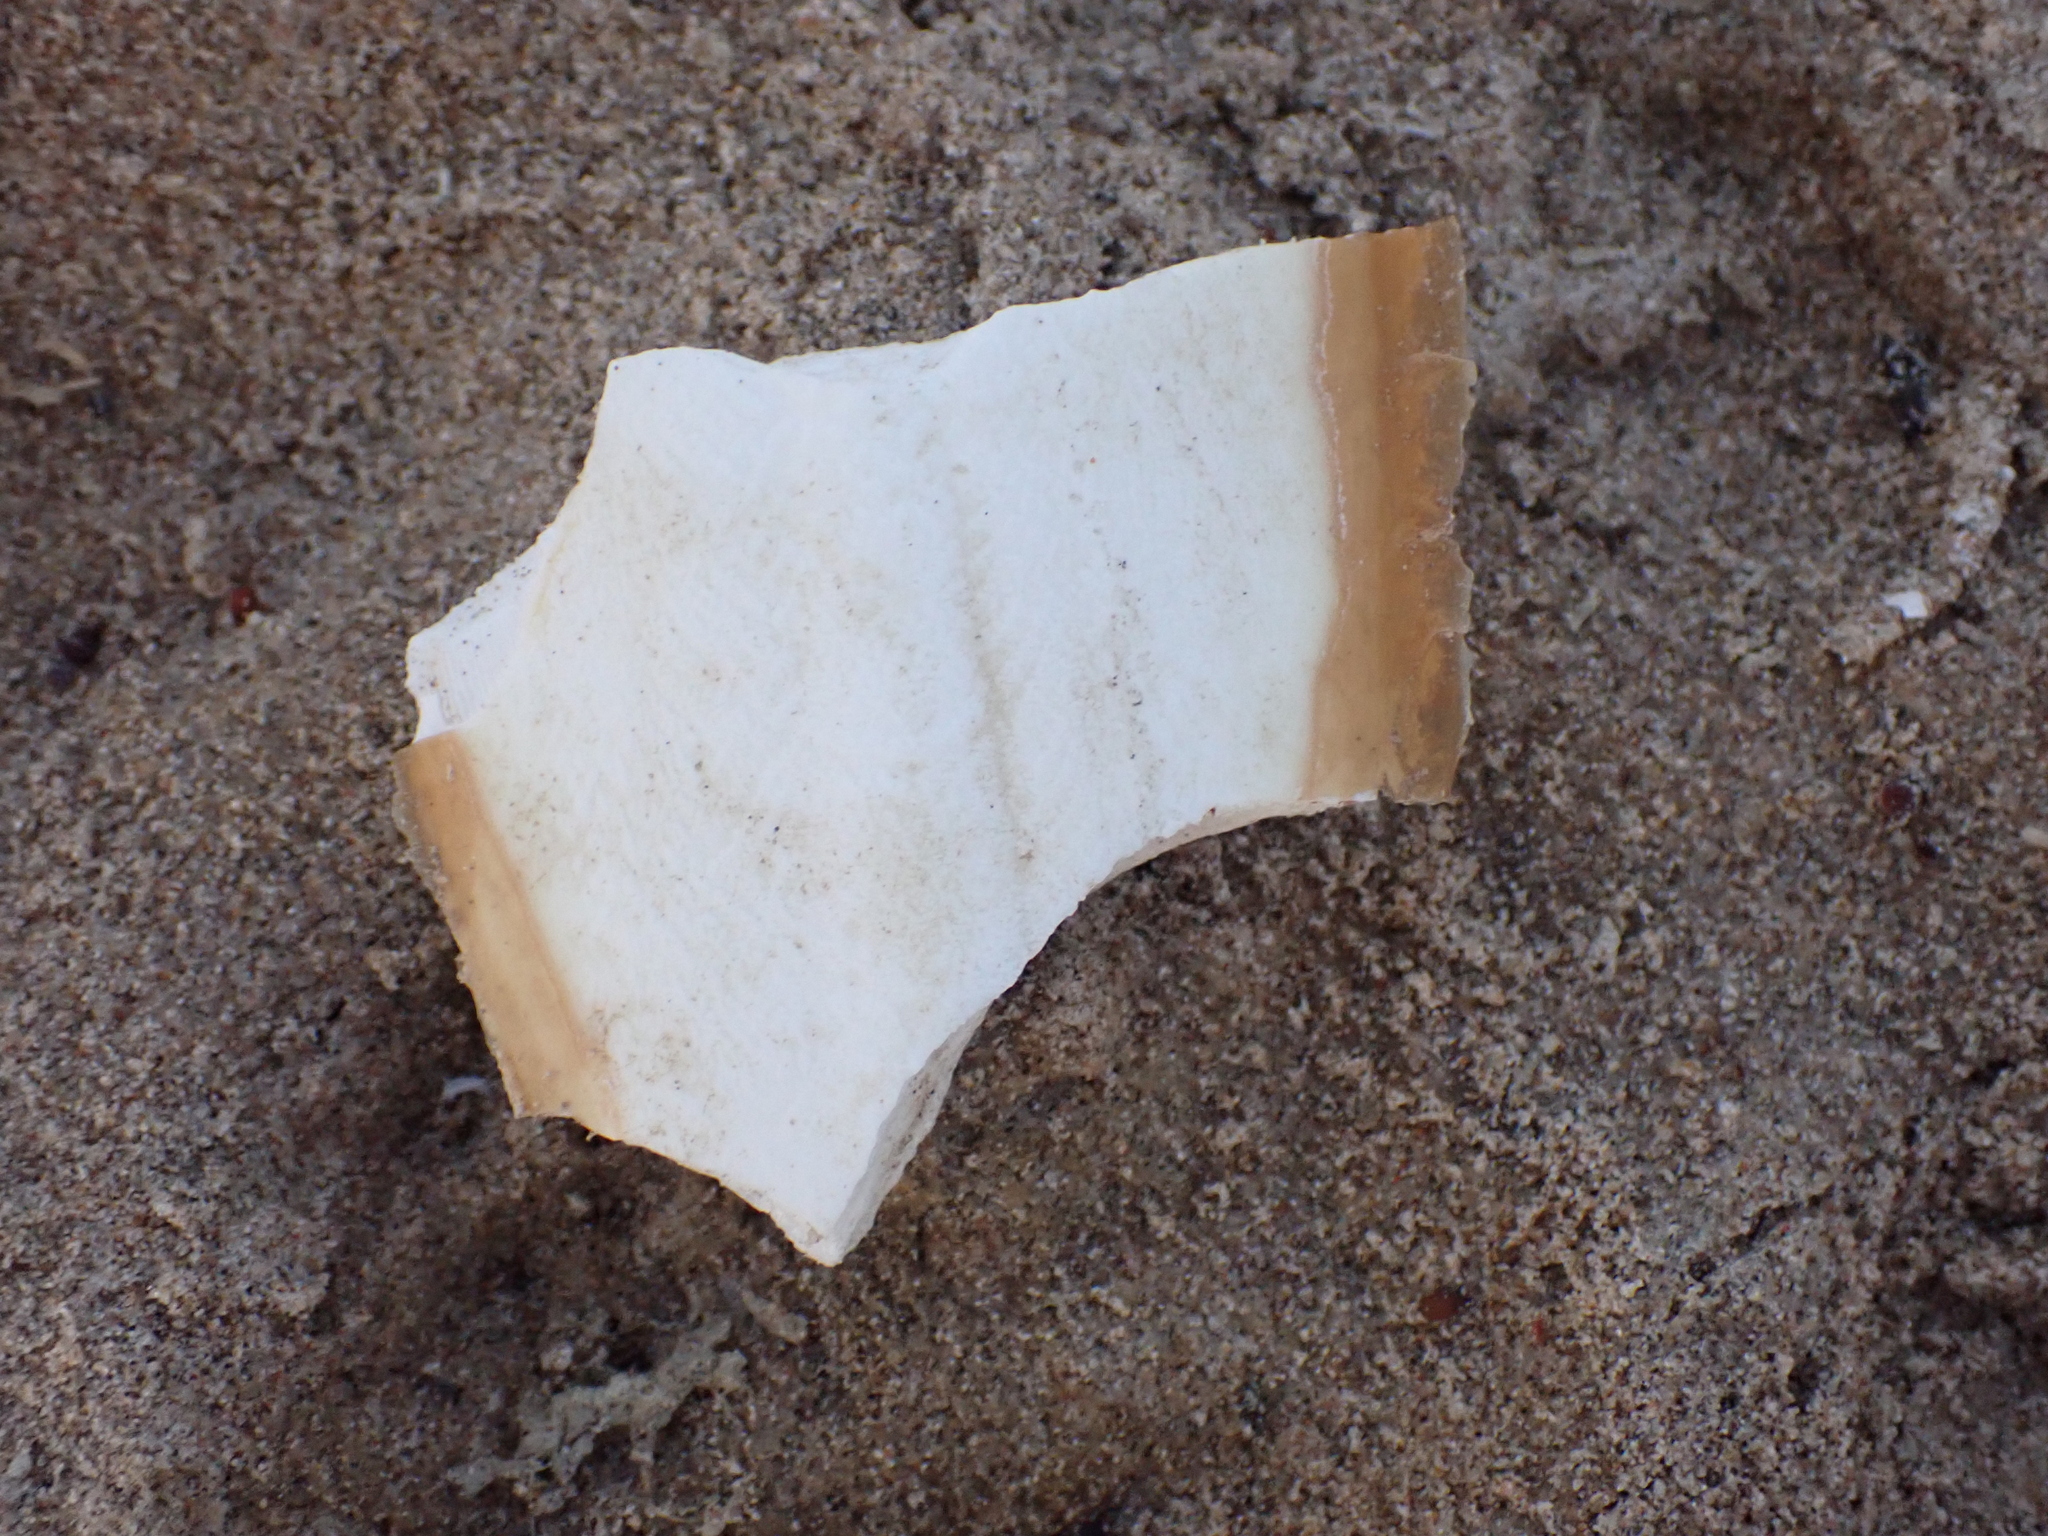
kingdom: Animalia
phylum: Mollusca
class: Cephalopoda
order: Sepiida
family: Sepiidae
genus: Sepia
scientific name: Sepia officinalis
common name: Common cuttlefish
